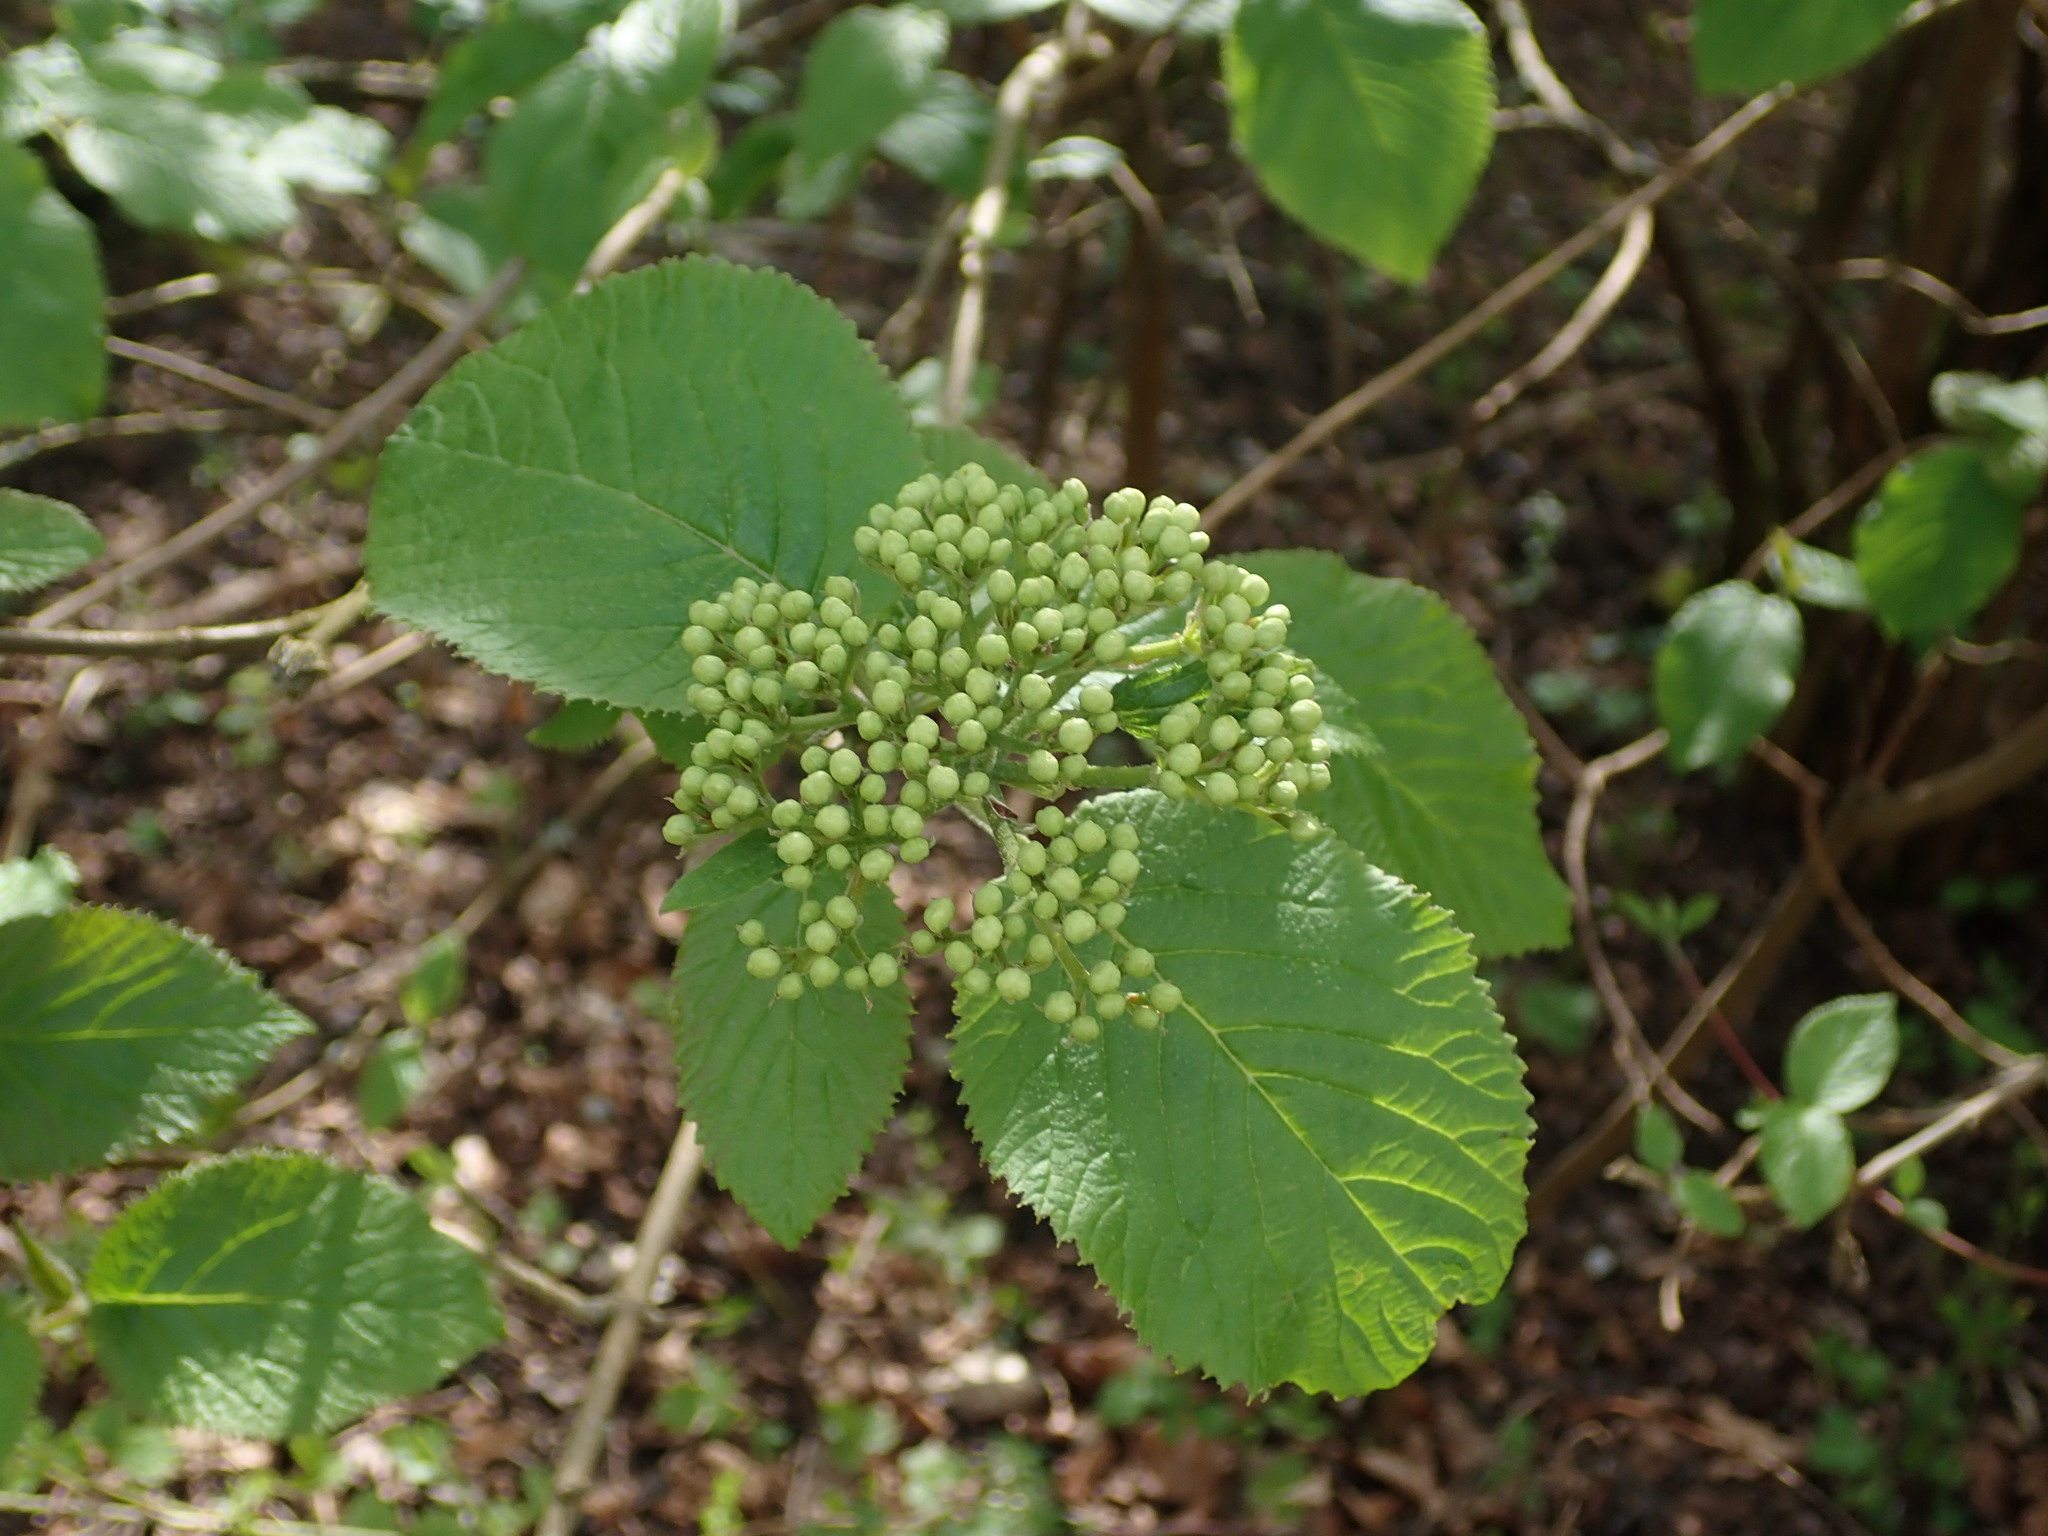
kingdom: Plantae
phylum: Tracheophyta
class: Magnoliopsida
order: Dipsacales
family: Viburnaceae
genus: Viburnum
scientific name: Viburnum lantana
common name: Wayfaring tree
